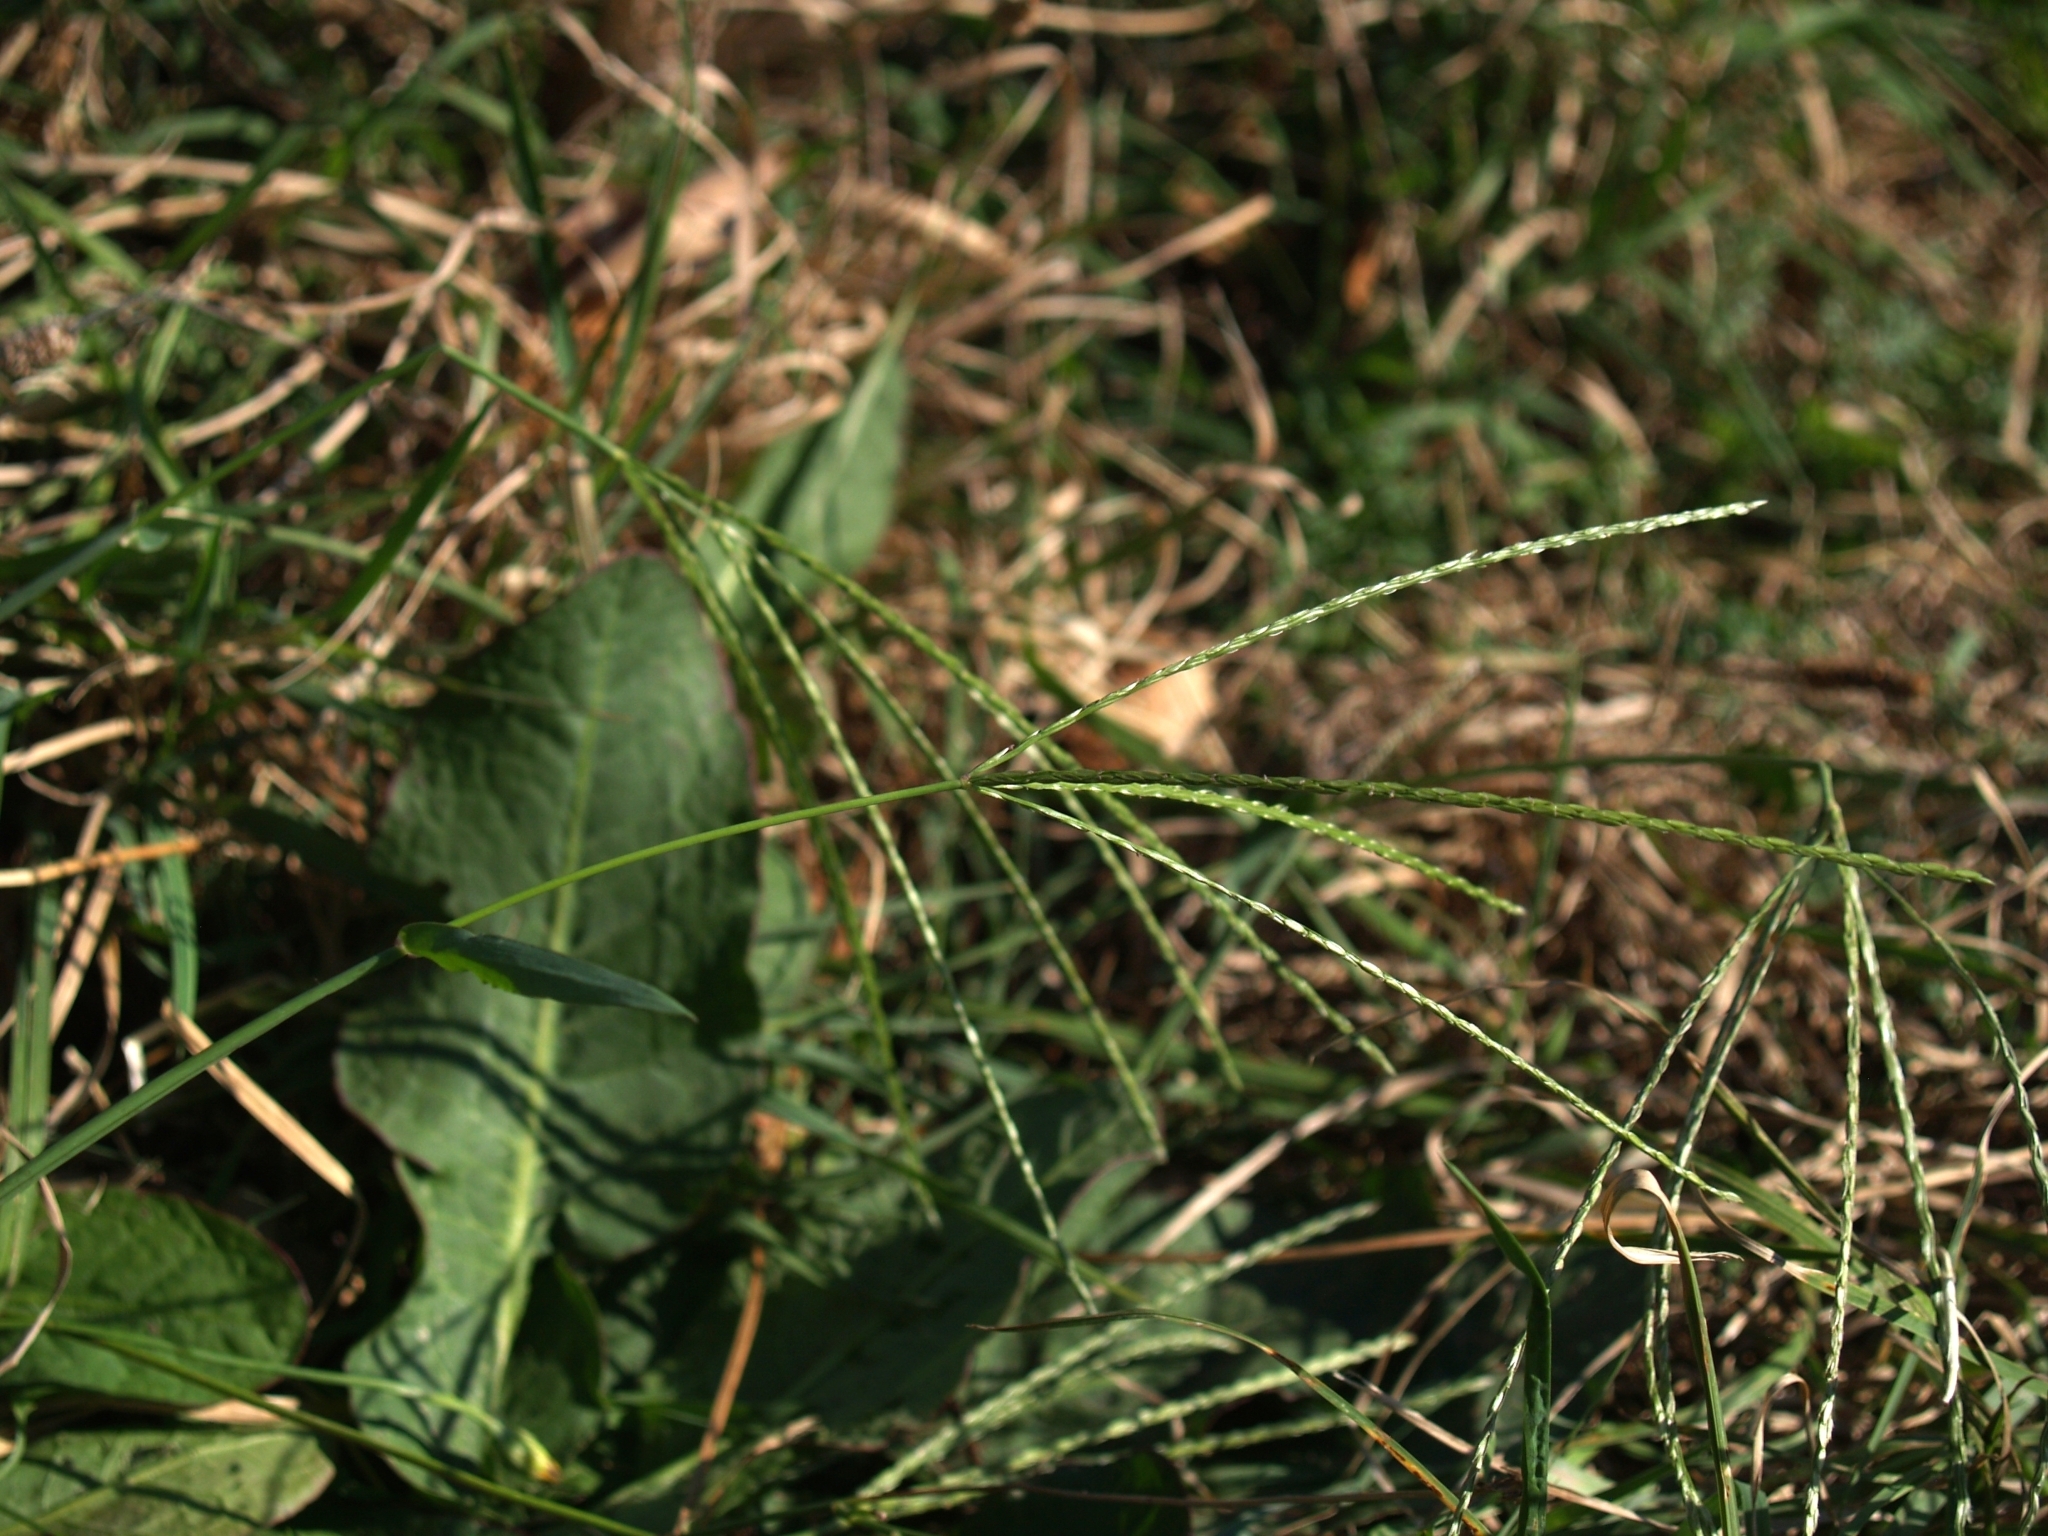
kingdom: Plantae
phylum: Tracheophyta
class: Liliopsida
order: Poales
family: Poaceae
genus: Digitaria
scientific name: Digitaria sanguinalis
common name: Hairy crabgrass
